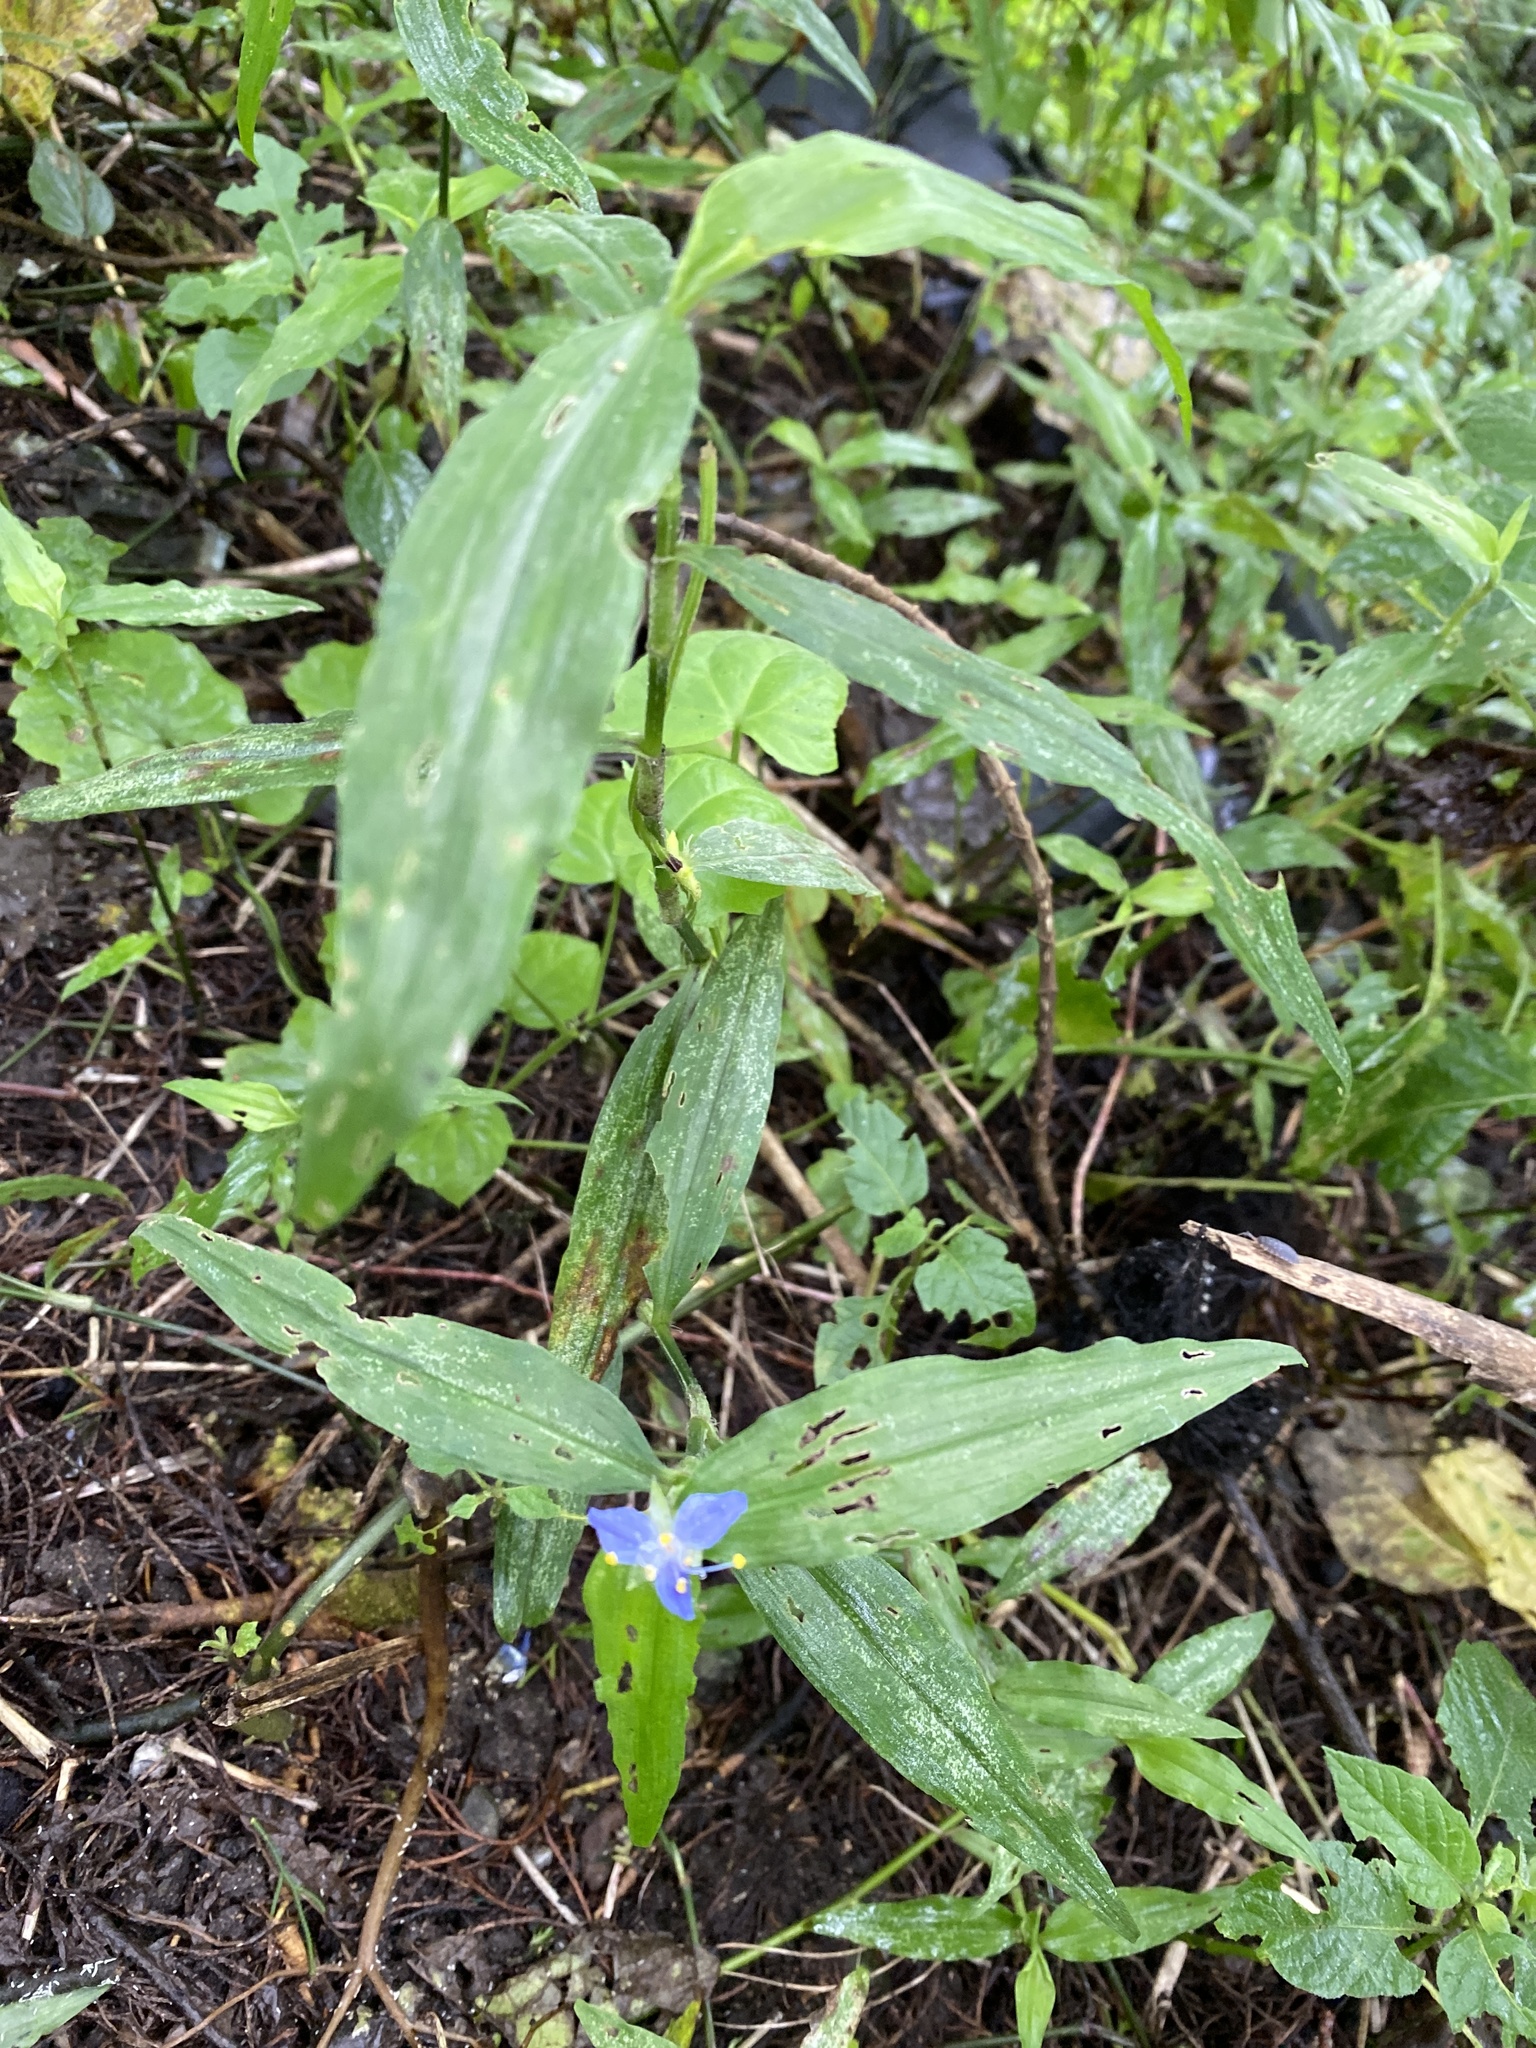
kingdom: Plantae
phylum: Tracheophyta
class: Liliopsida
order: Commelinales
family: Commelinaceae
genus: Elasis
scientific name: Elasis guatemalensis
